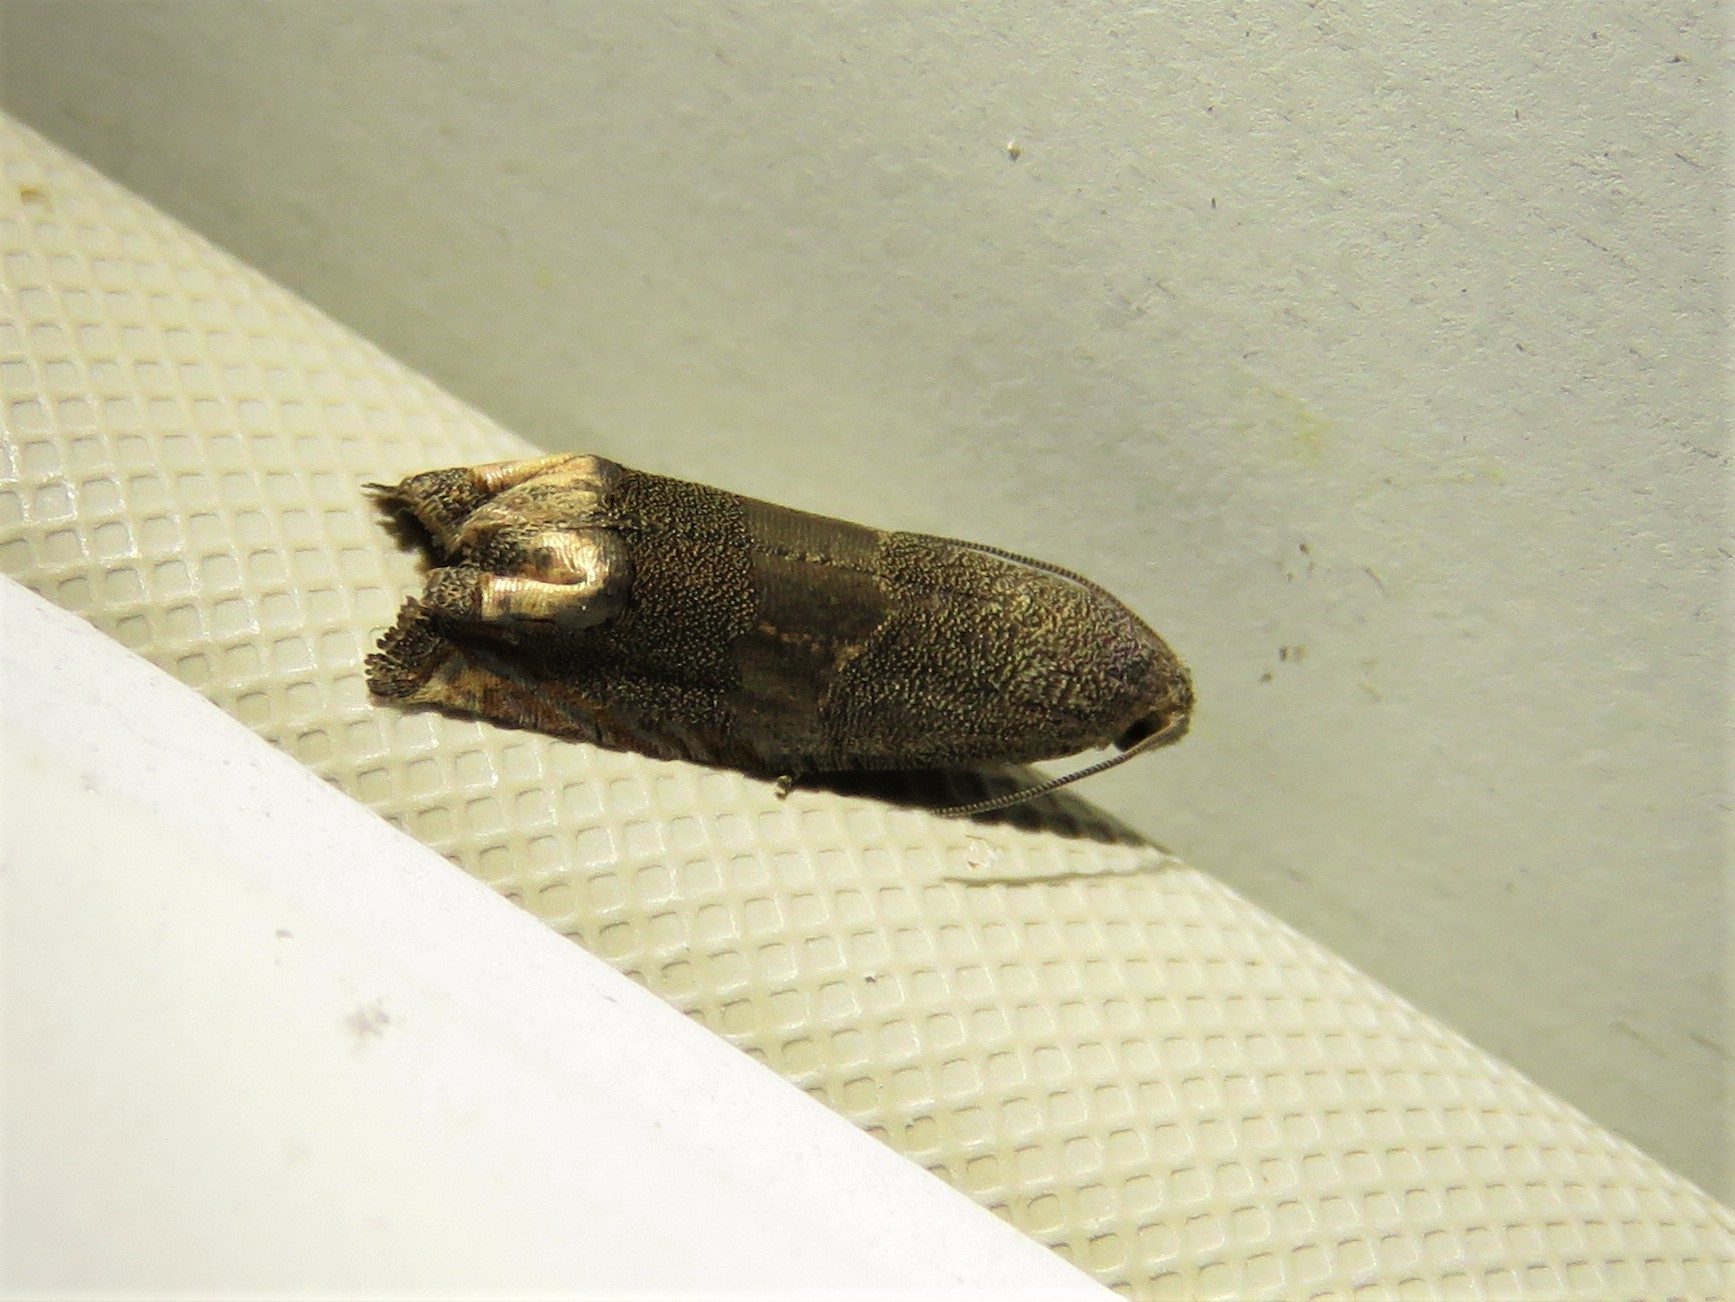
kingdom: Animalia
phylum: Arthropoda
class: Insecta
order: Lepidoptera
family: Tortricidae
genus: Epiblema
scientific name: Epiblema strenuana
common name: Ragweed borer moth
